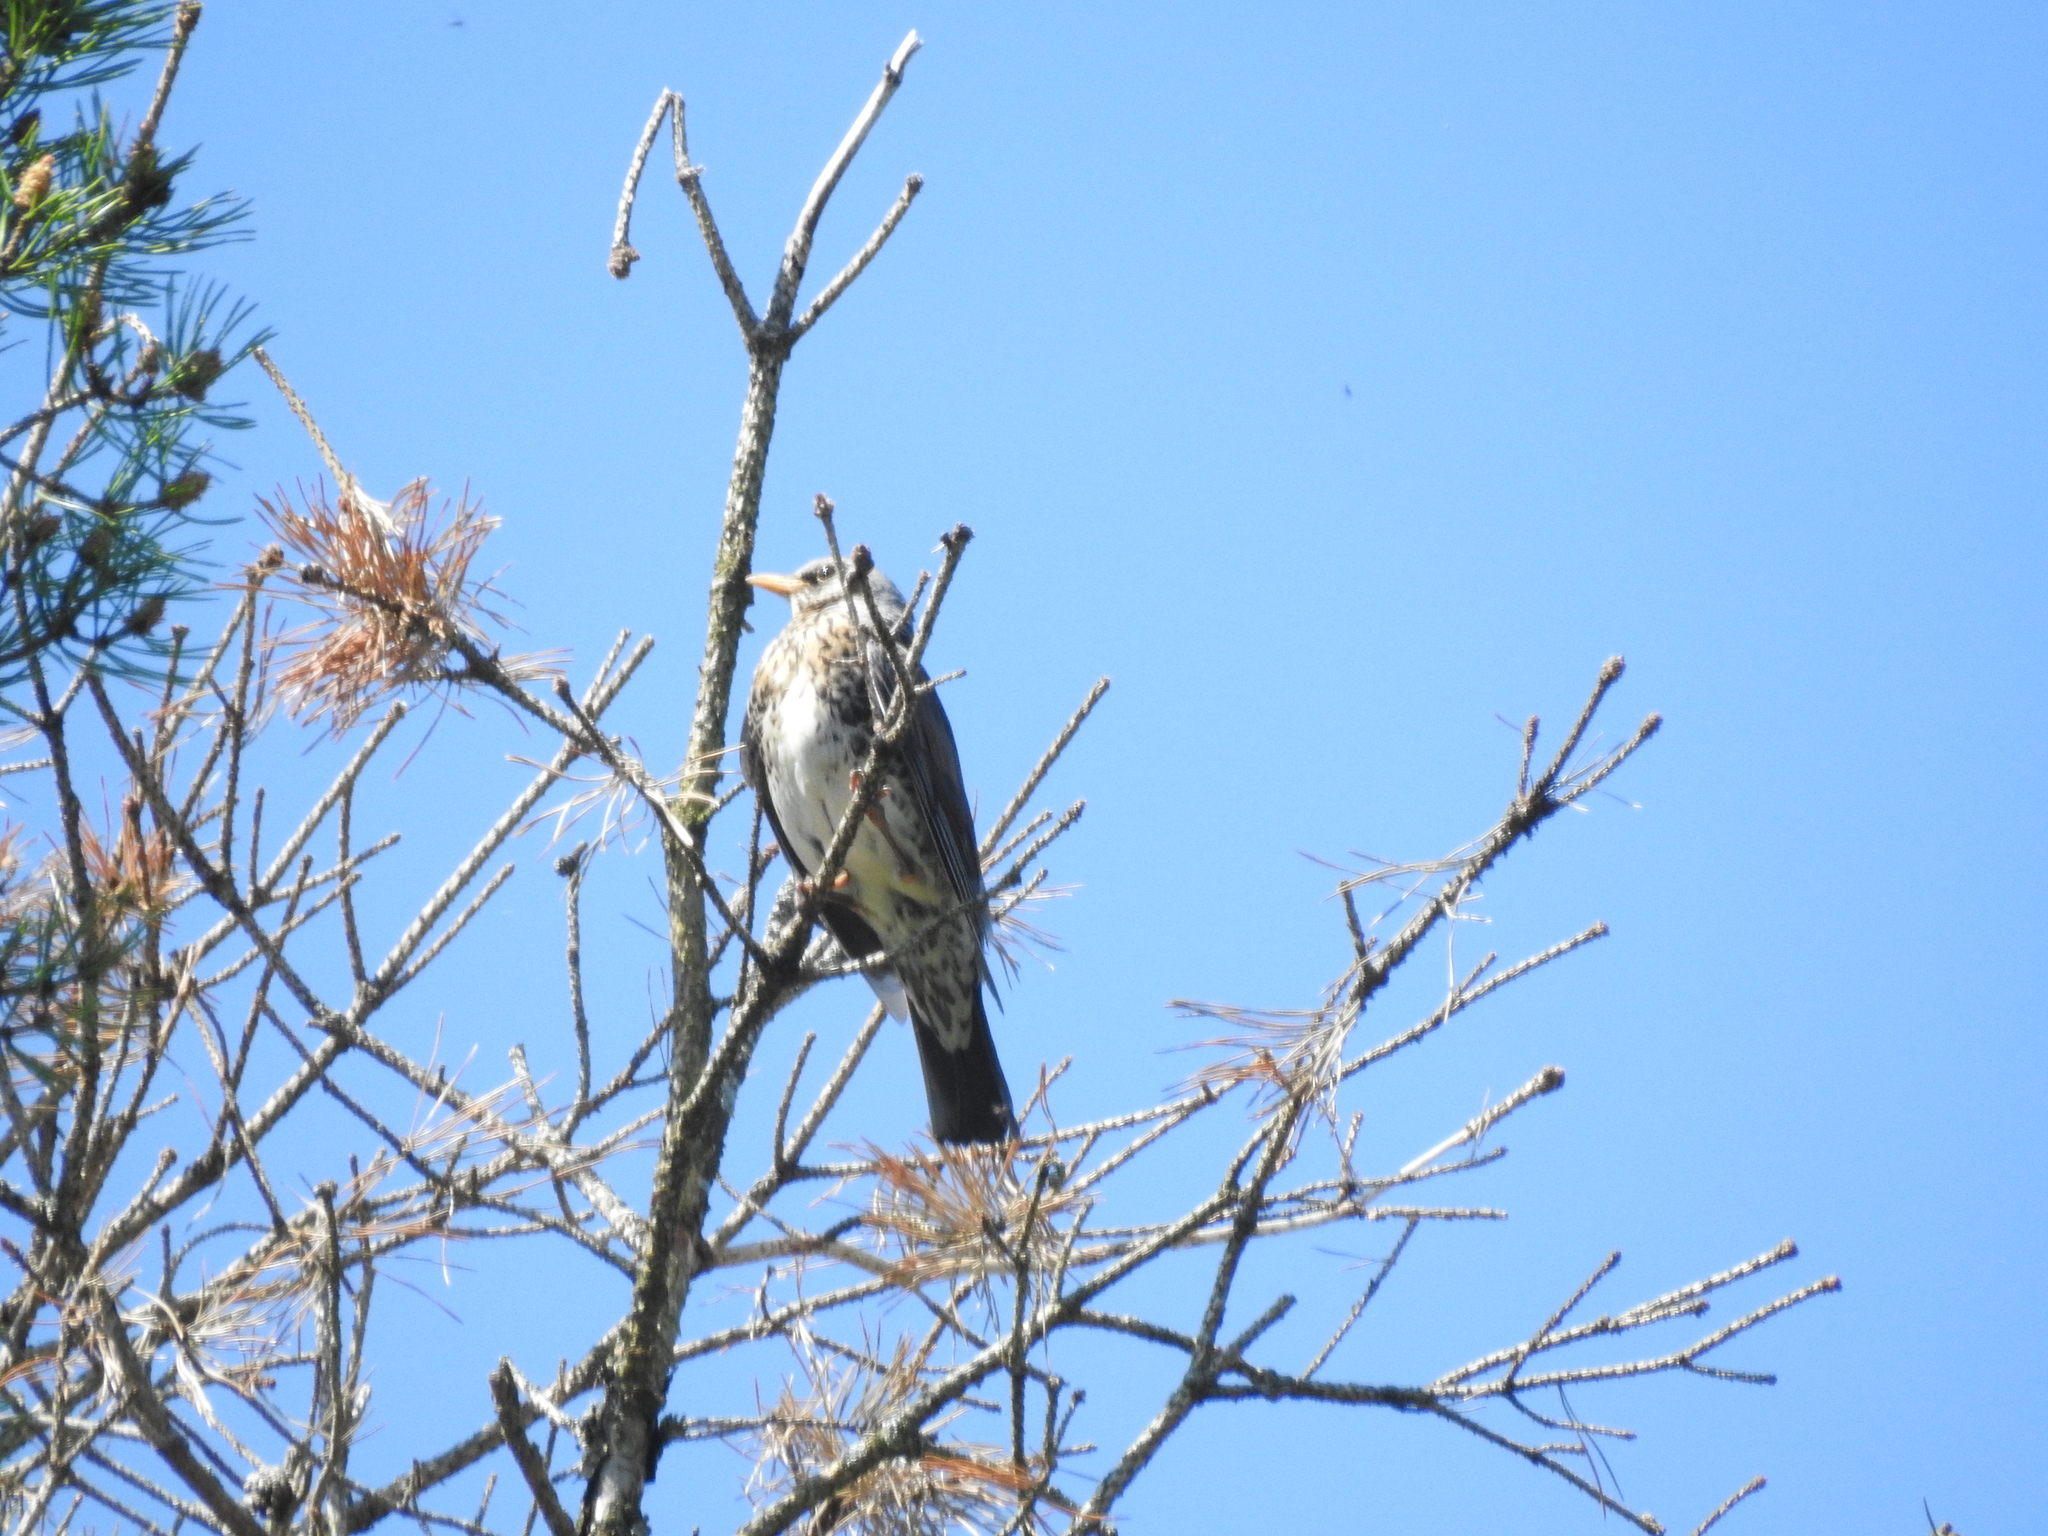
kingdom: Animalia
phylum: Chordata
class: Aves
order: Passeriformes
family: Turdidae
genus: Turdus
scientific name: Turdus pilaris
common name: Fieldfare
